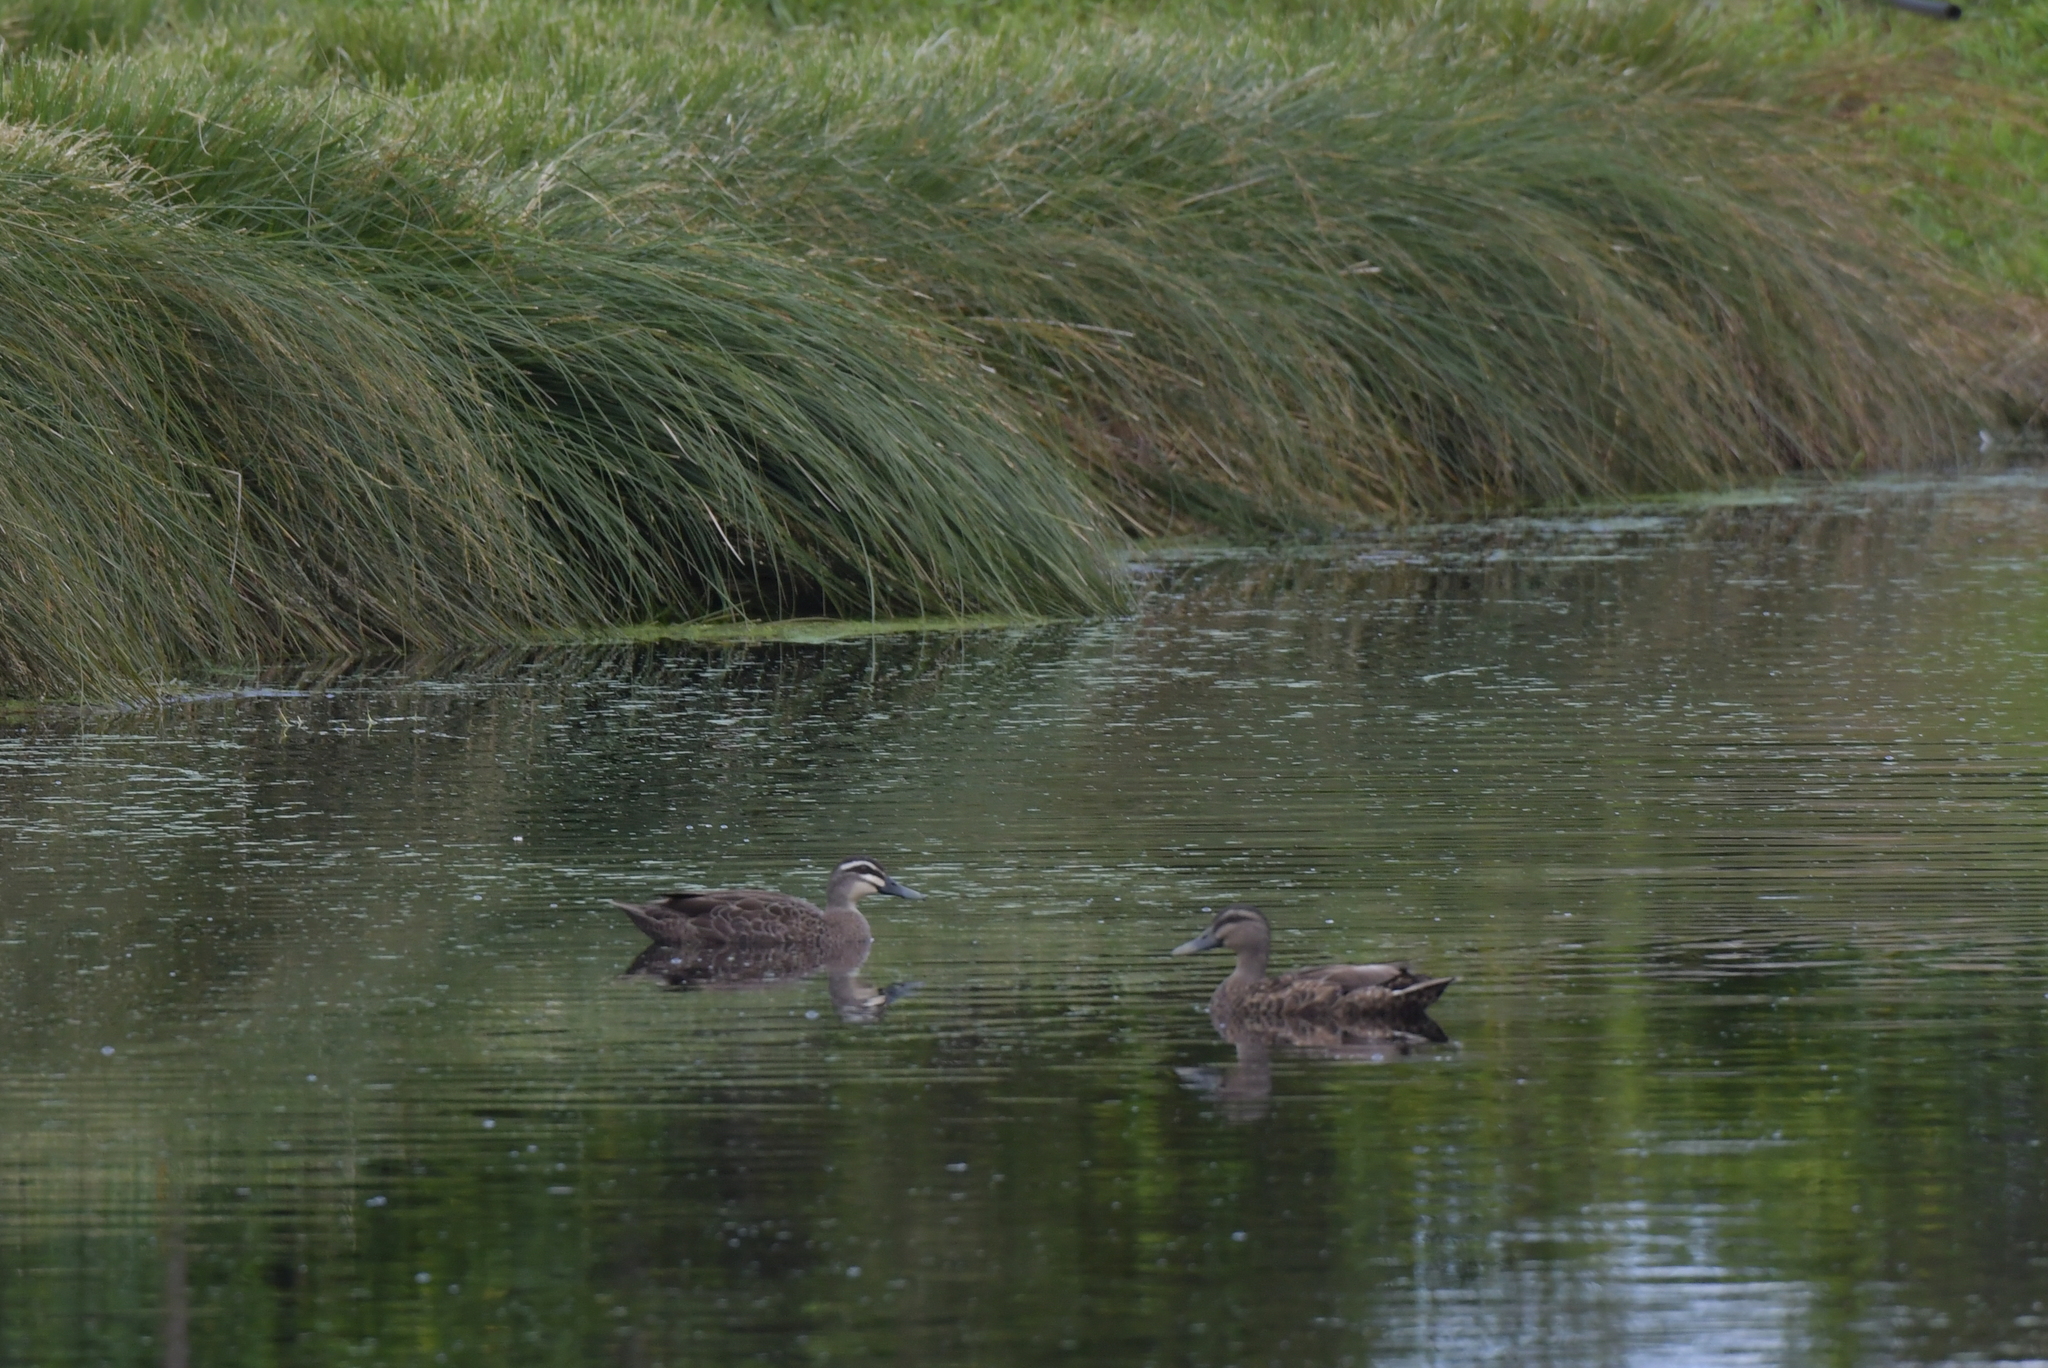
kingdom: Animalia
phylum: Chordata
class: Aves
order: Anseriformes
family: Anatidae
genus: Anas
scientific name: Anas
